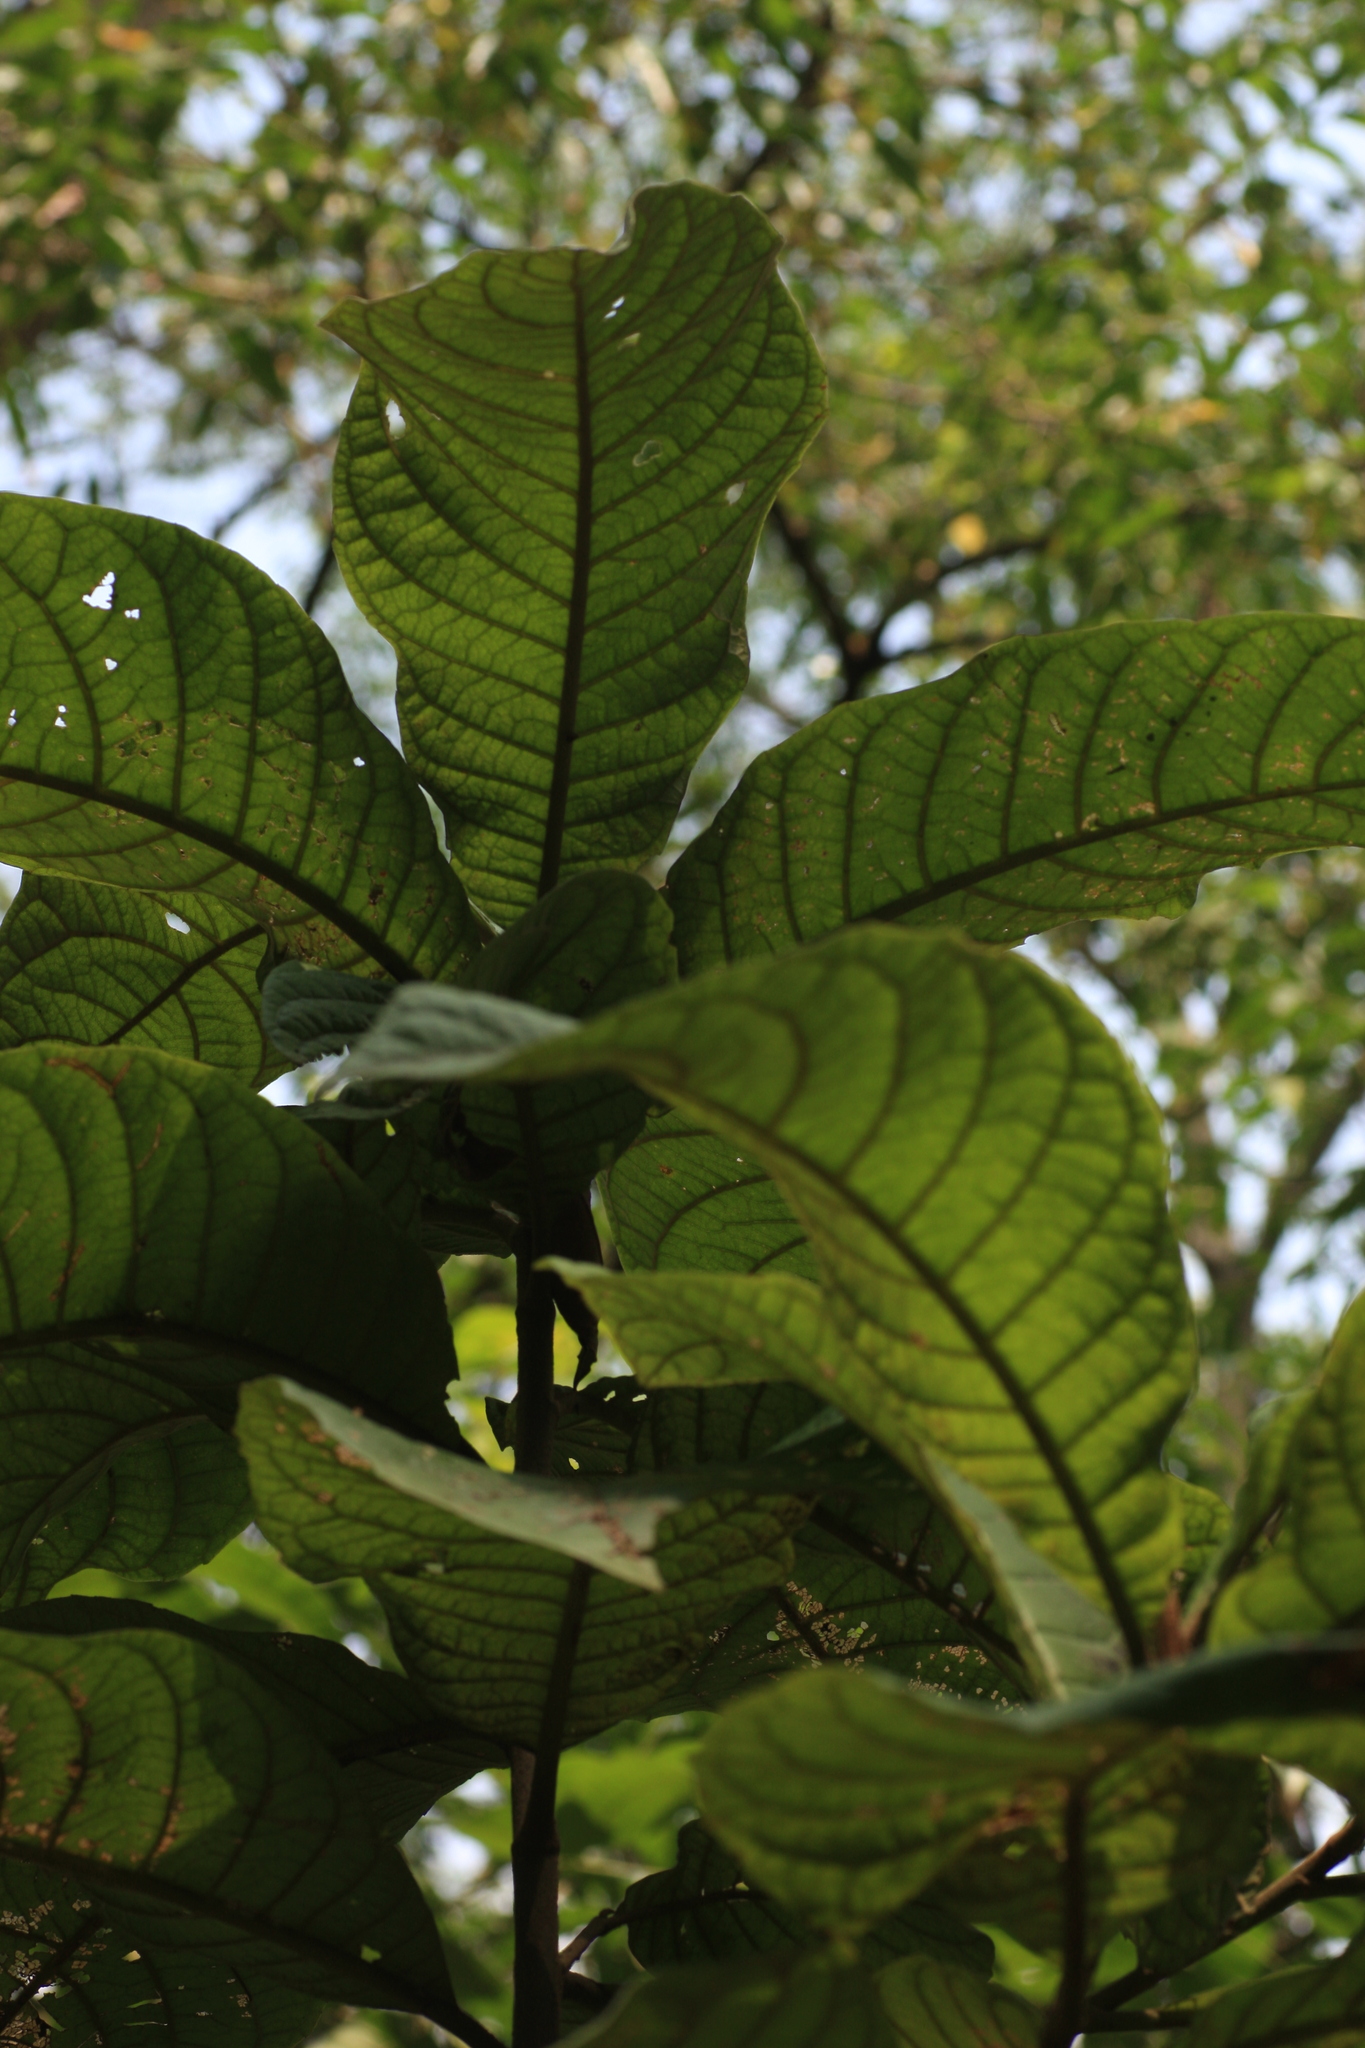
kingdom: Plantae
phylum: Tracheophyta
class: Magnoliopsida
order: Asterales
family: Asteraceae
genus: Strobocalyx
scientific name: Strobocalyx arborea
